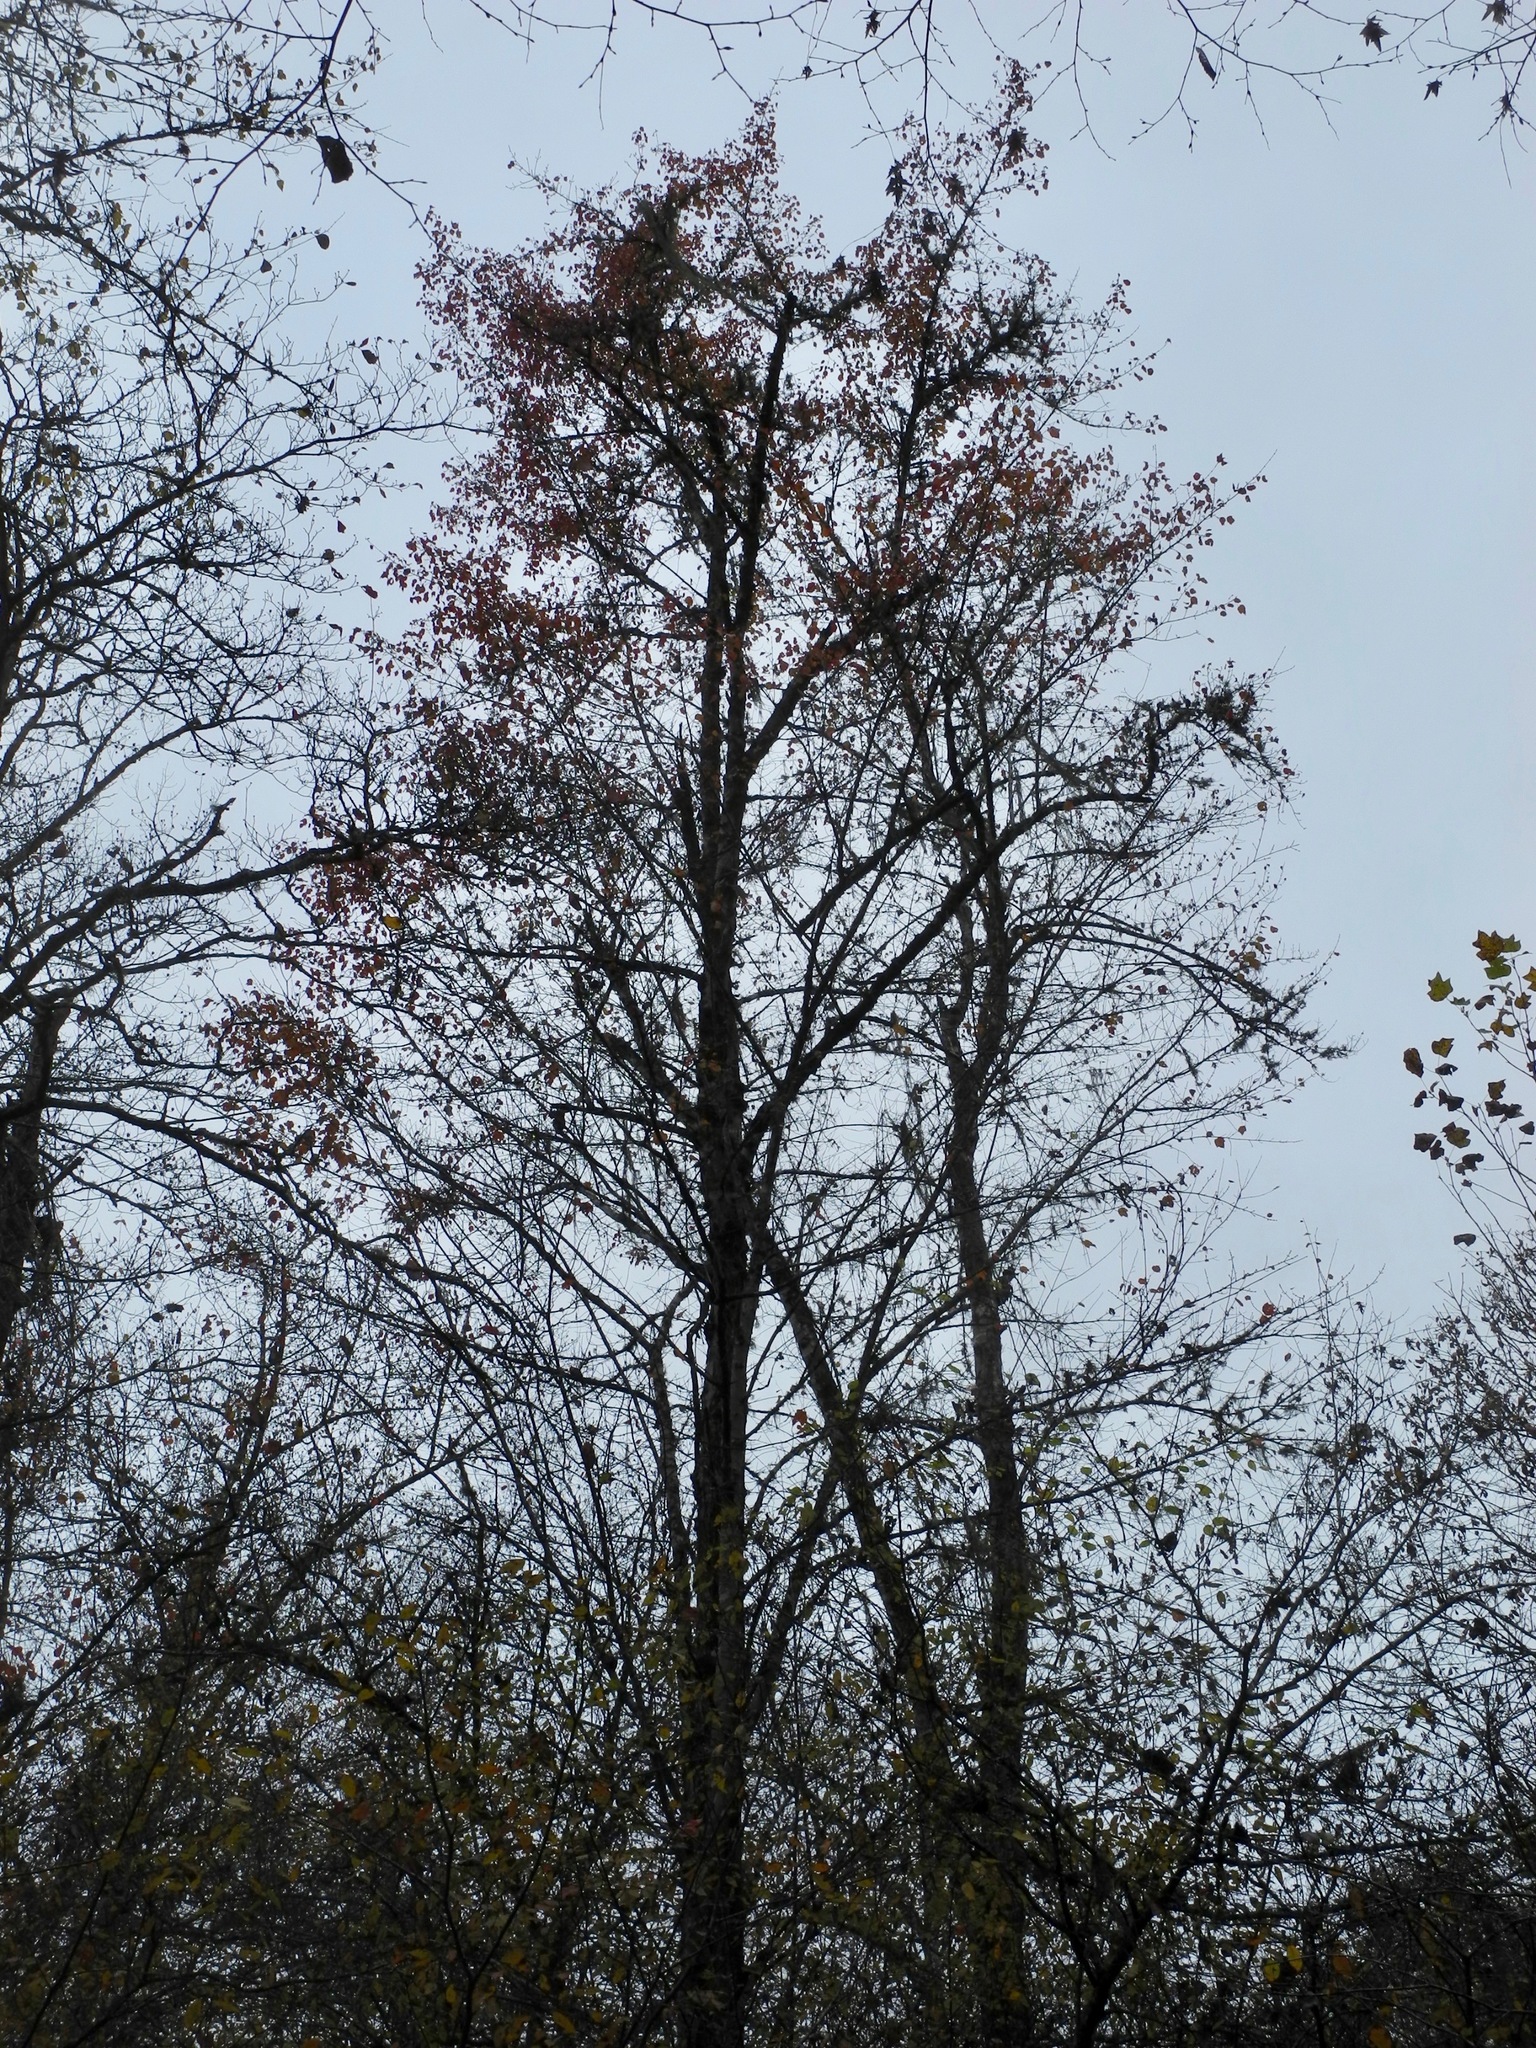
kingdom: Plantae
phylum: Tracheophyta
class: Magnoliopsida
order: Sapindales
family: Sapindaceae
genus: Acer
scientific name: Acer rubrum
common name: Red maple
